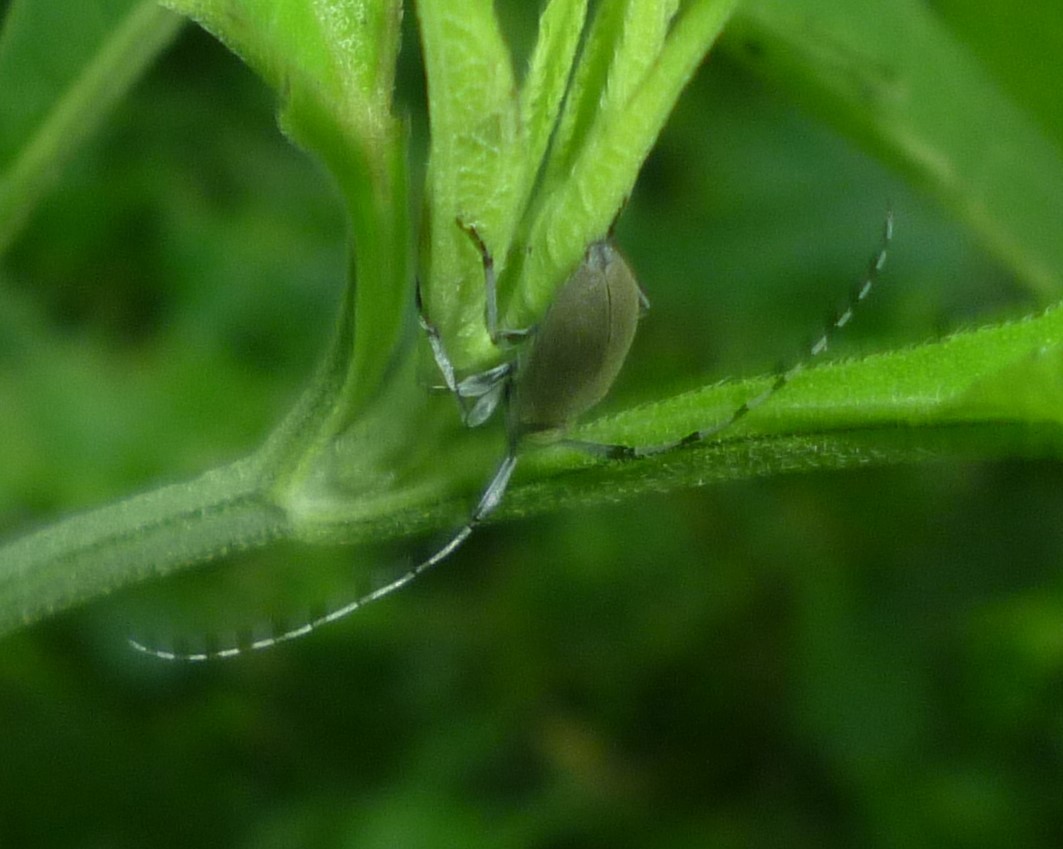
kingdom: Animalia
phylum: Arthropoda
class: Insecta
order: Coleoptera
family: Cerambycidae
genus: Dectes
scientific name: Dectes texanus
